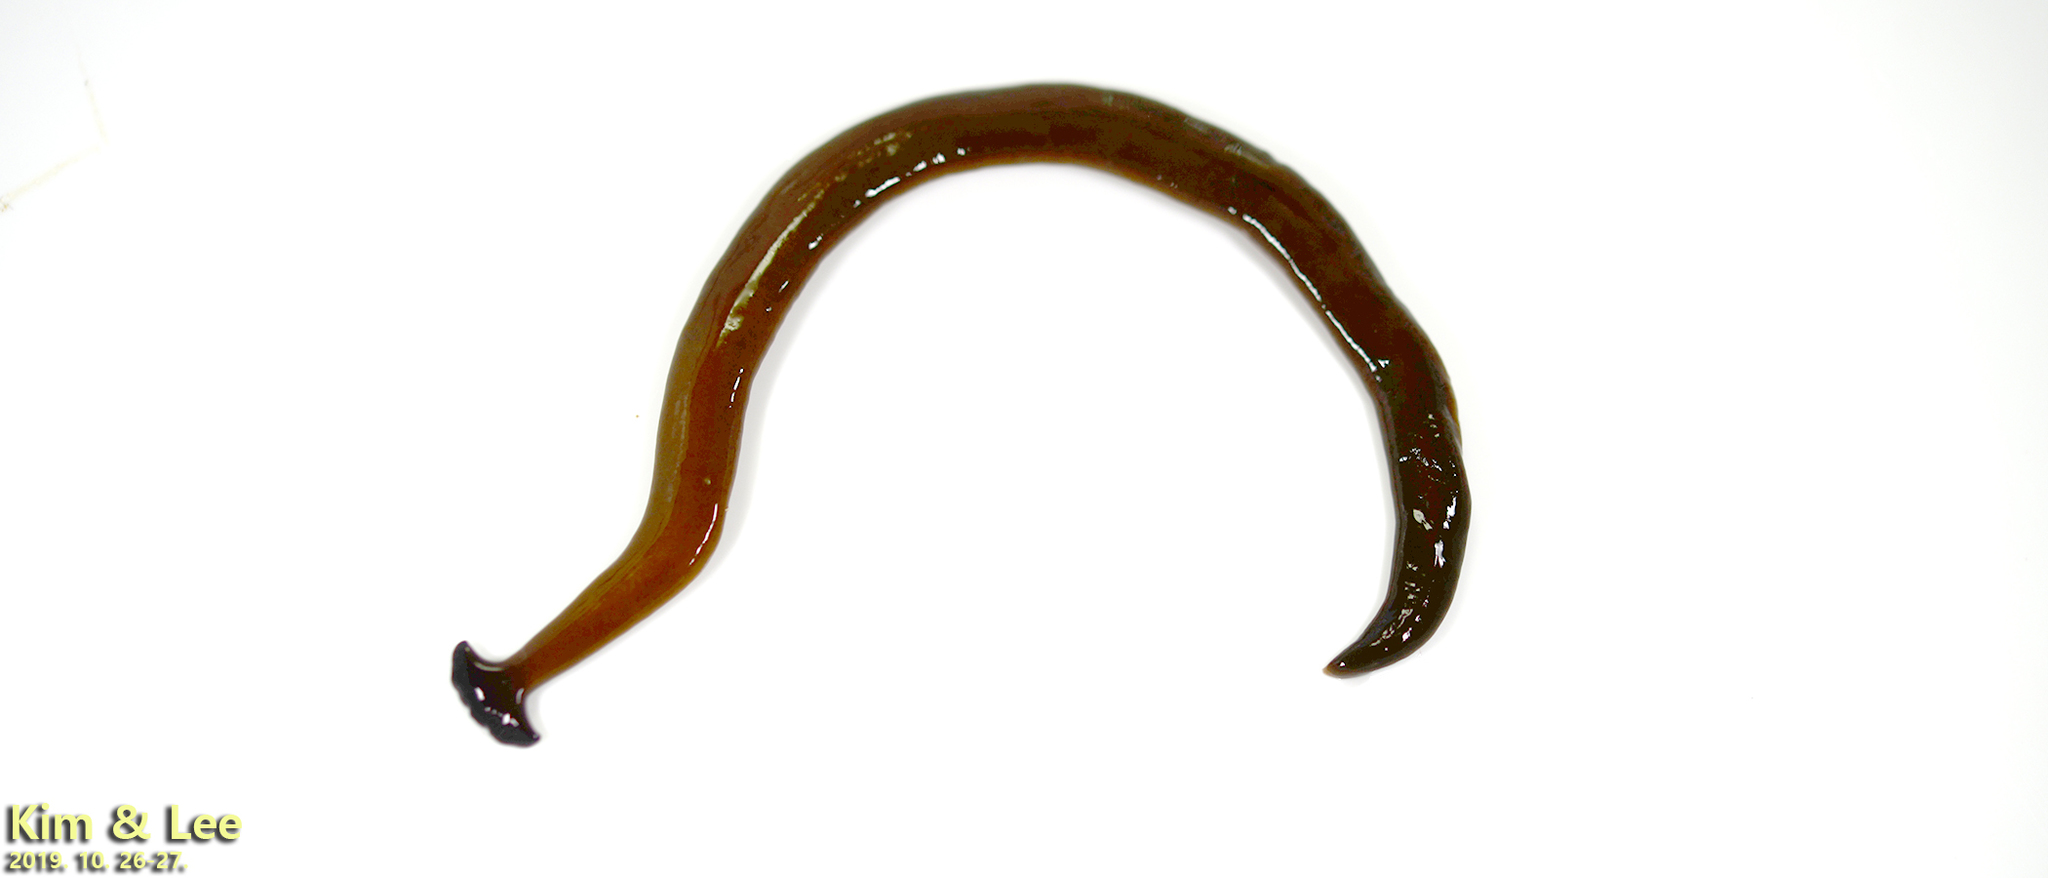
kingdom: Animalia
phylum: Platyhelminthes
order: Tricladida
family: Geoplanidae
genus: Bipalium
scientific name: Bipalium fuscolineatum
